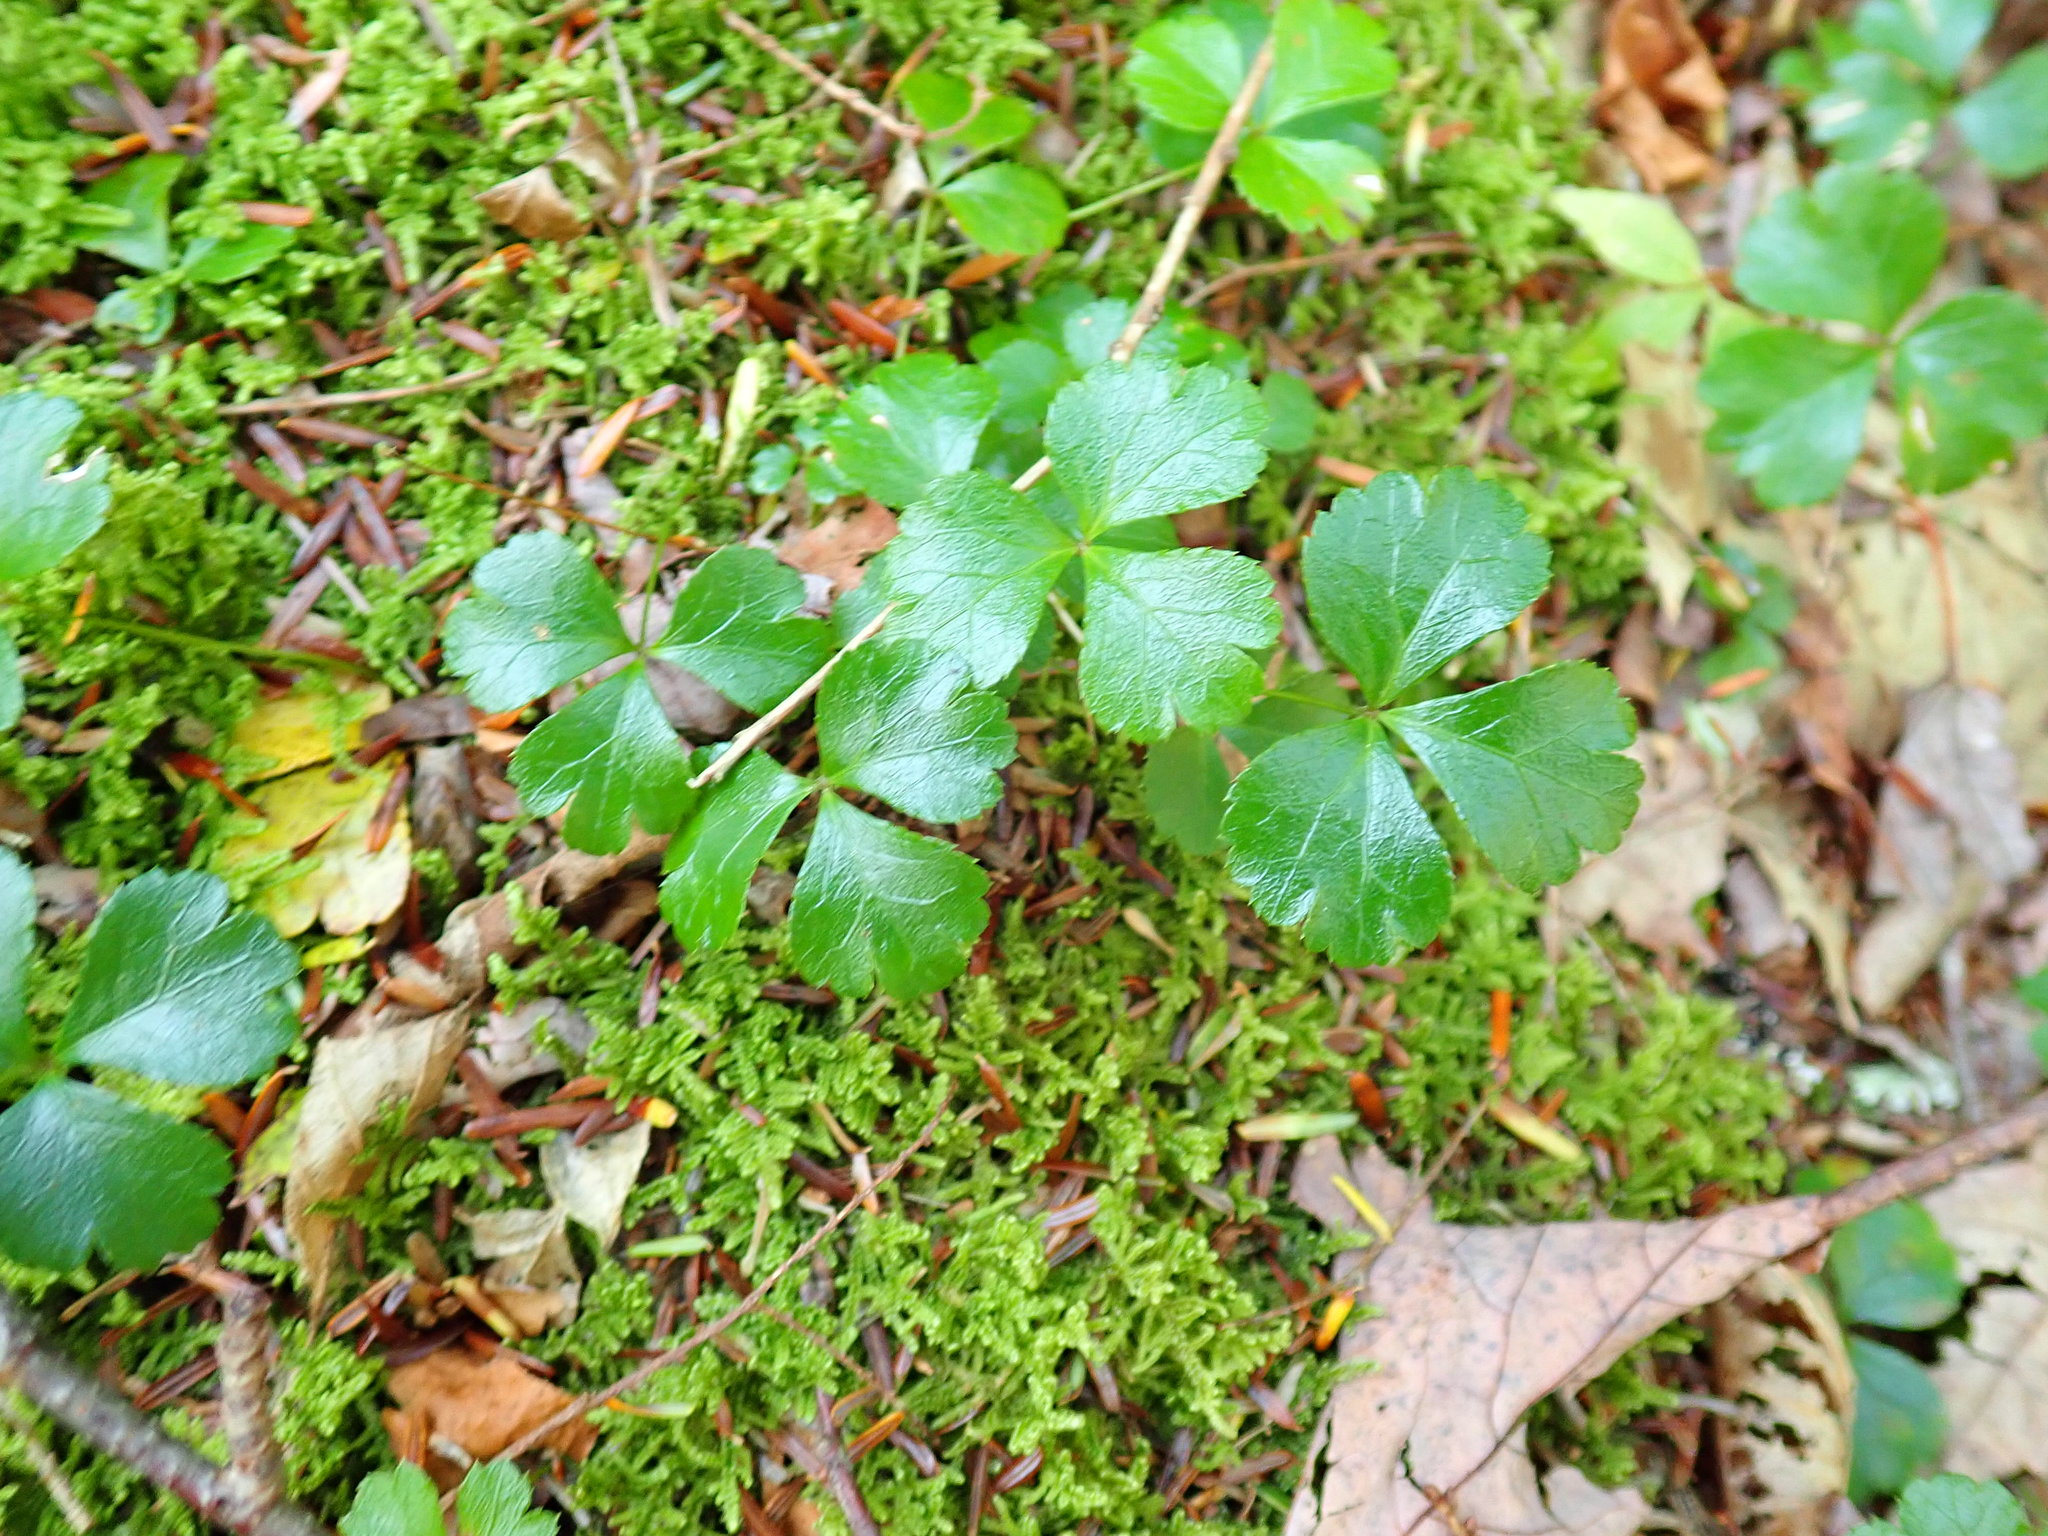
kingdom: Plantae
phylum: Tracheophyta
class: Magnoliopsida
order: Ranunculales
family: Ranunculaceae
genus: Coptis
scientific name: Coptis trifolia
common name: Canker-root
